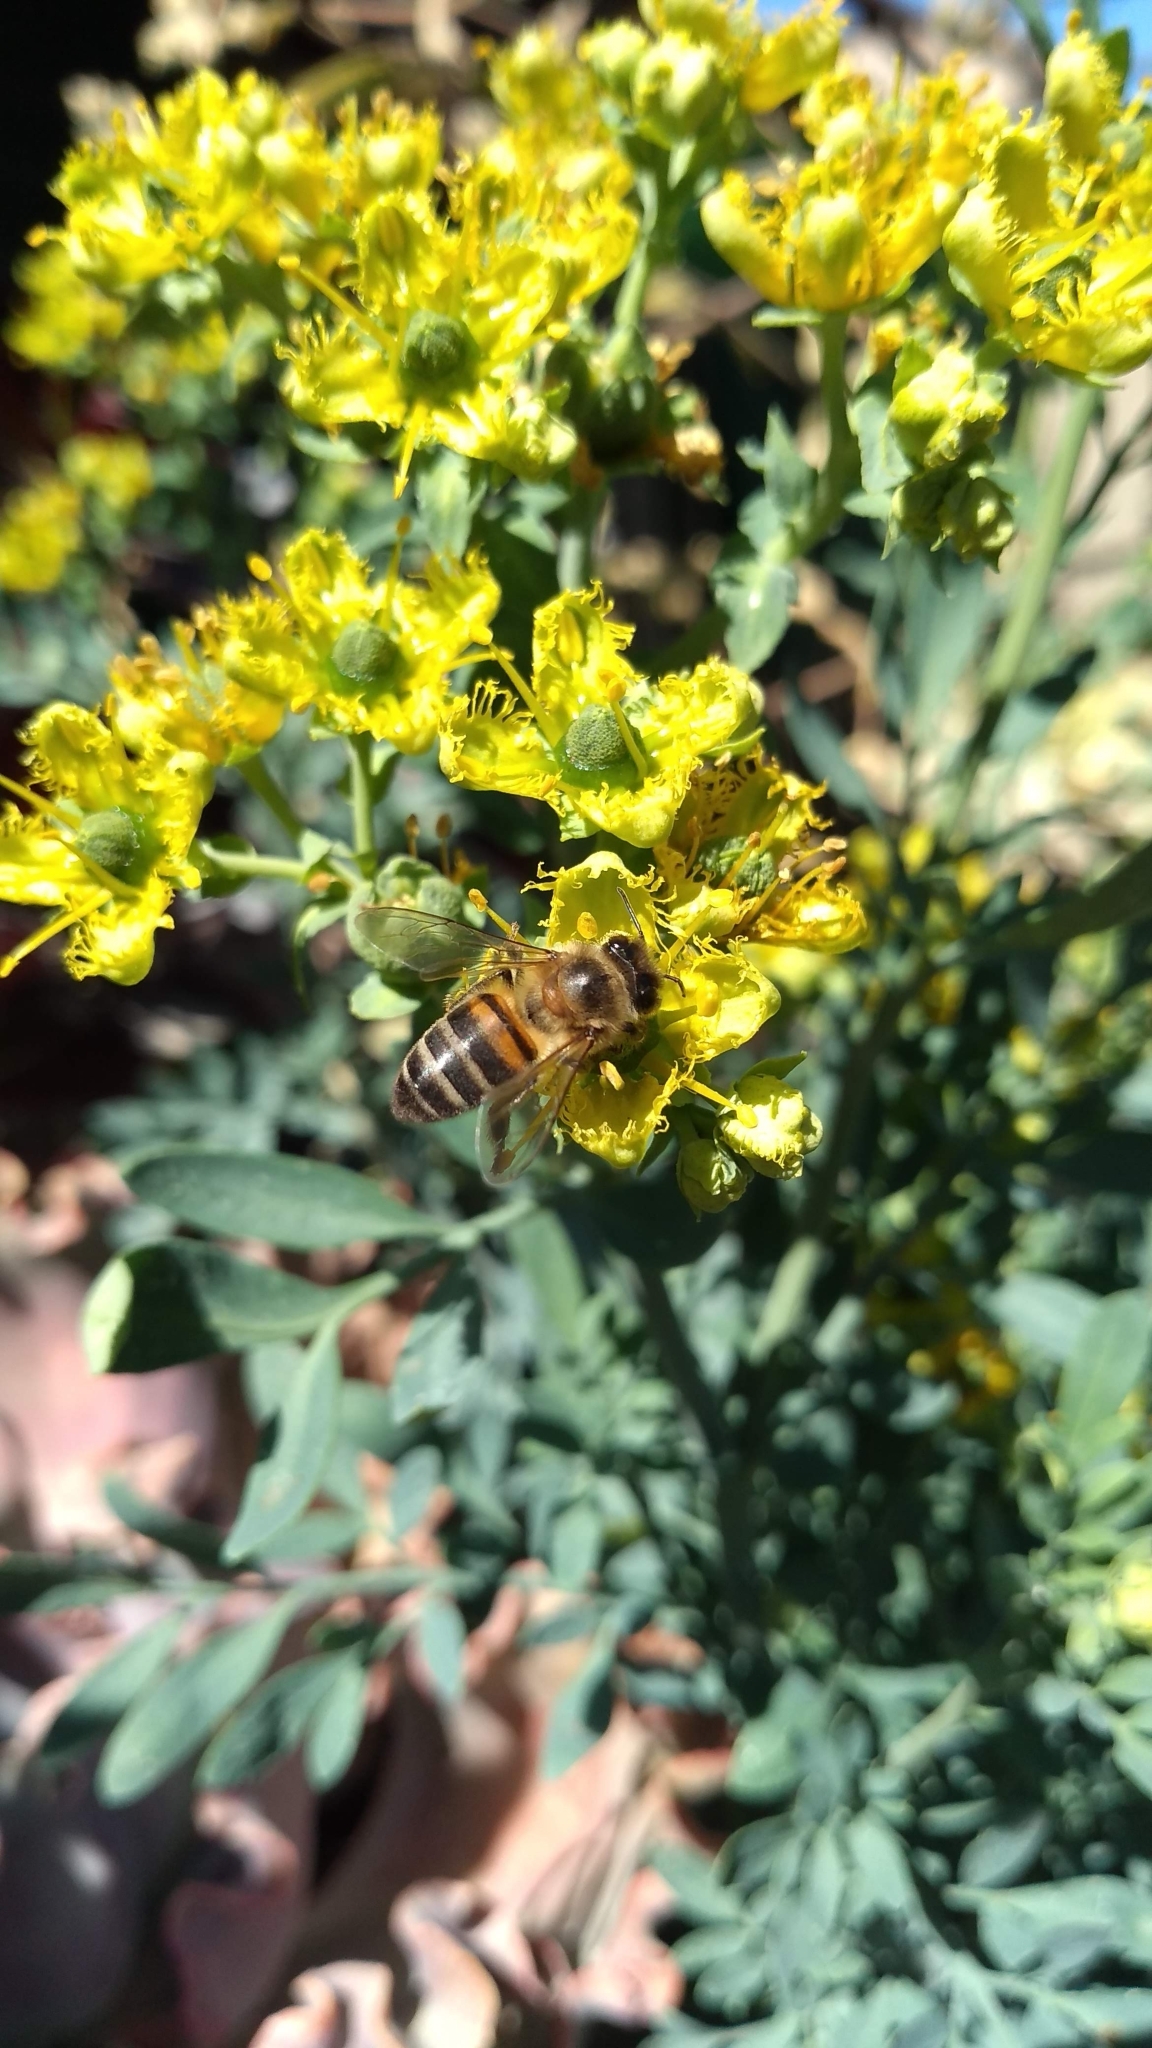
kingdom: Animalia
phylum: Arthropoda
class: Insecta
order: Hymenoptera
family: Apidae
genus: Apis
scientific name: Apis mellifera
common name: Honey bee
